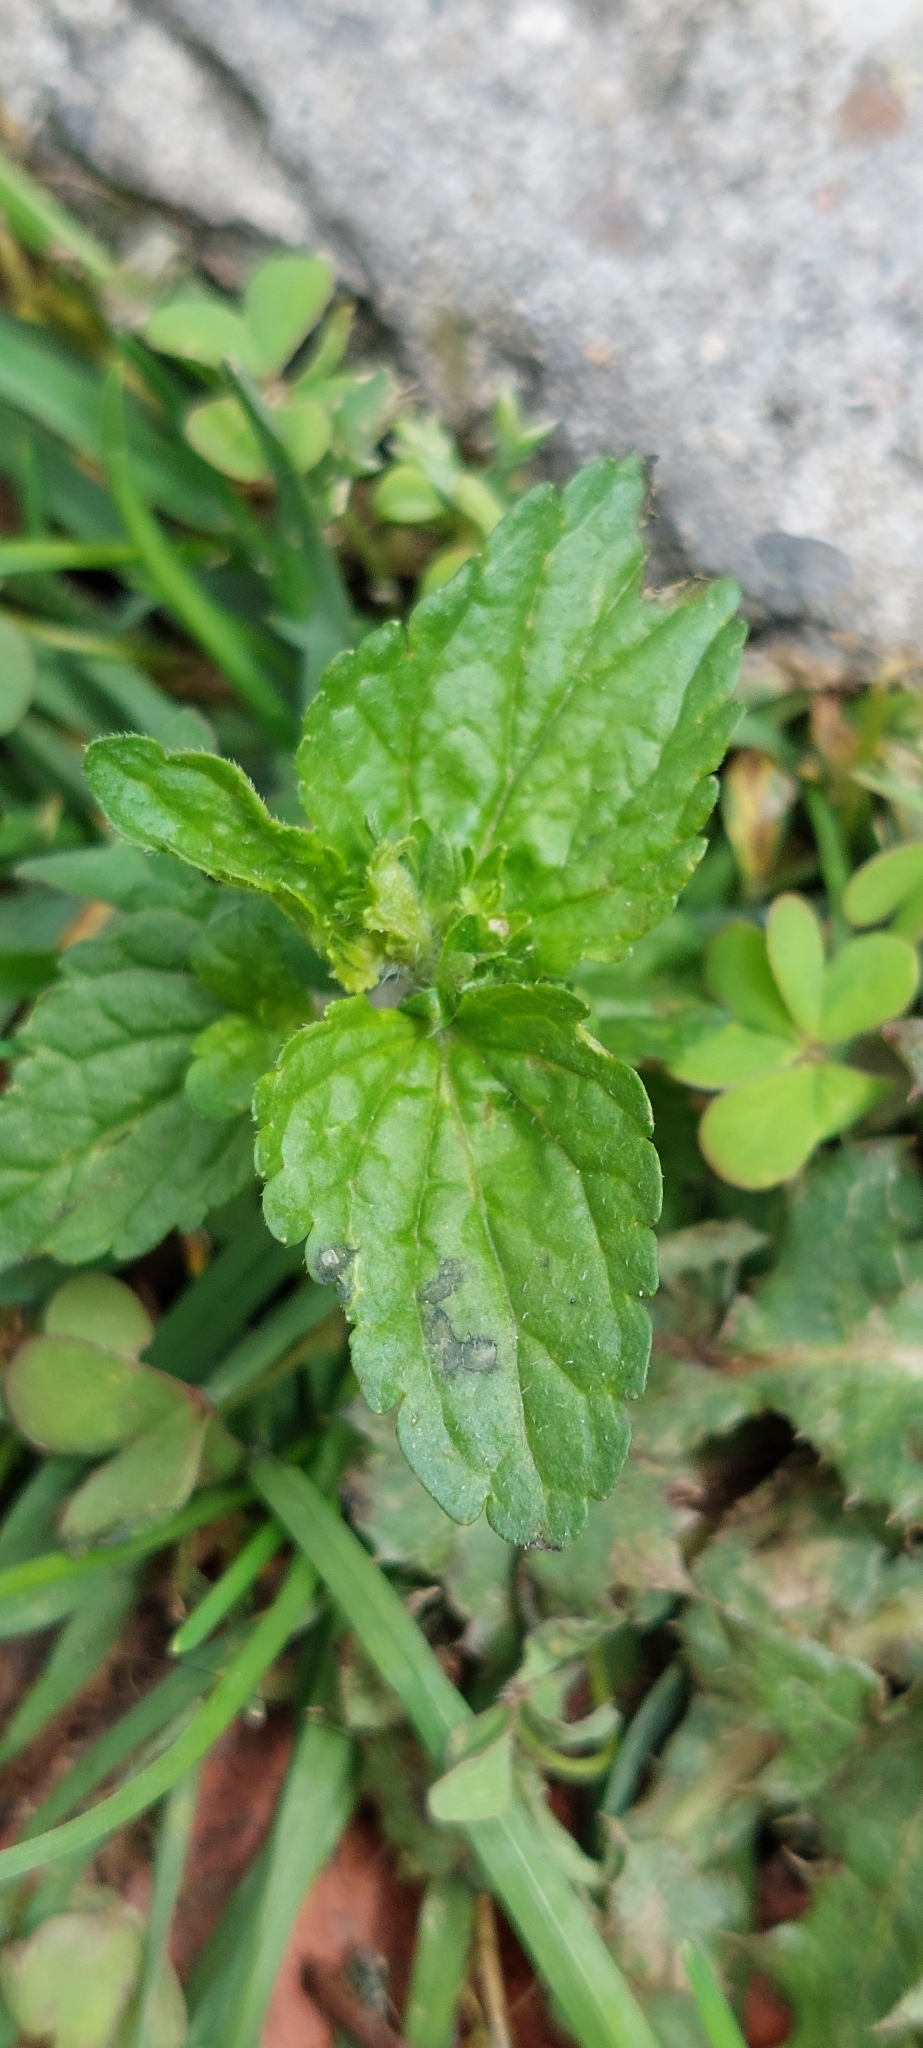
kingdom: Plantae
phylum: Tracheophyta
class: Magnoliopsida
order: Lamiales
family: Plantaginaceae
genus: Veronica
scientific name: Veronica javanica
